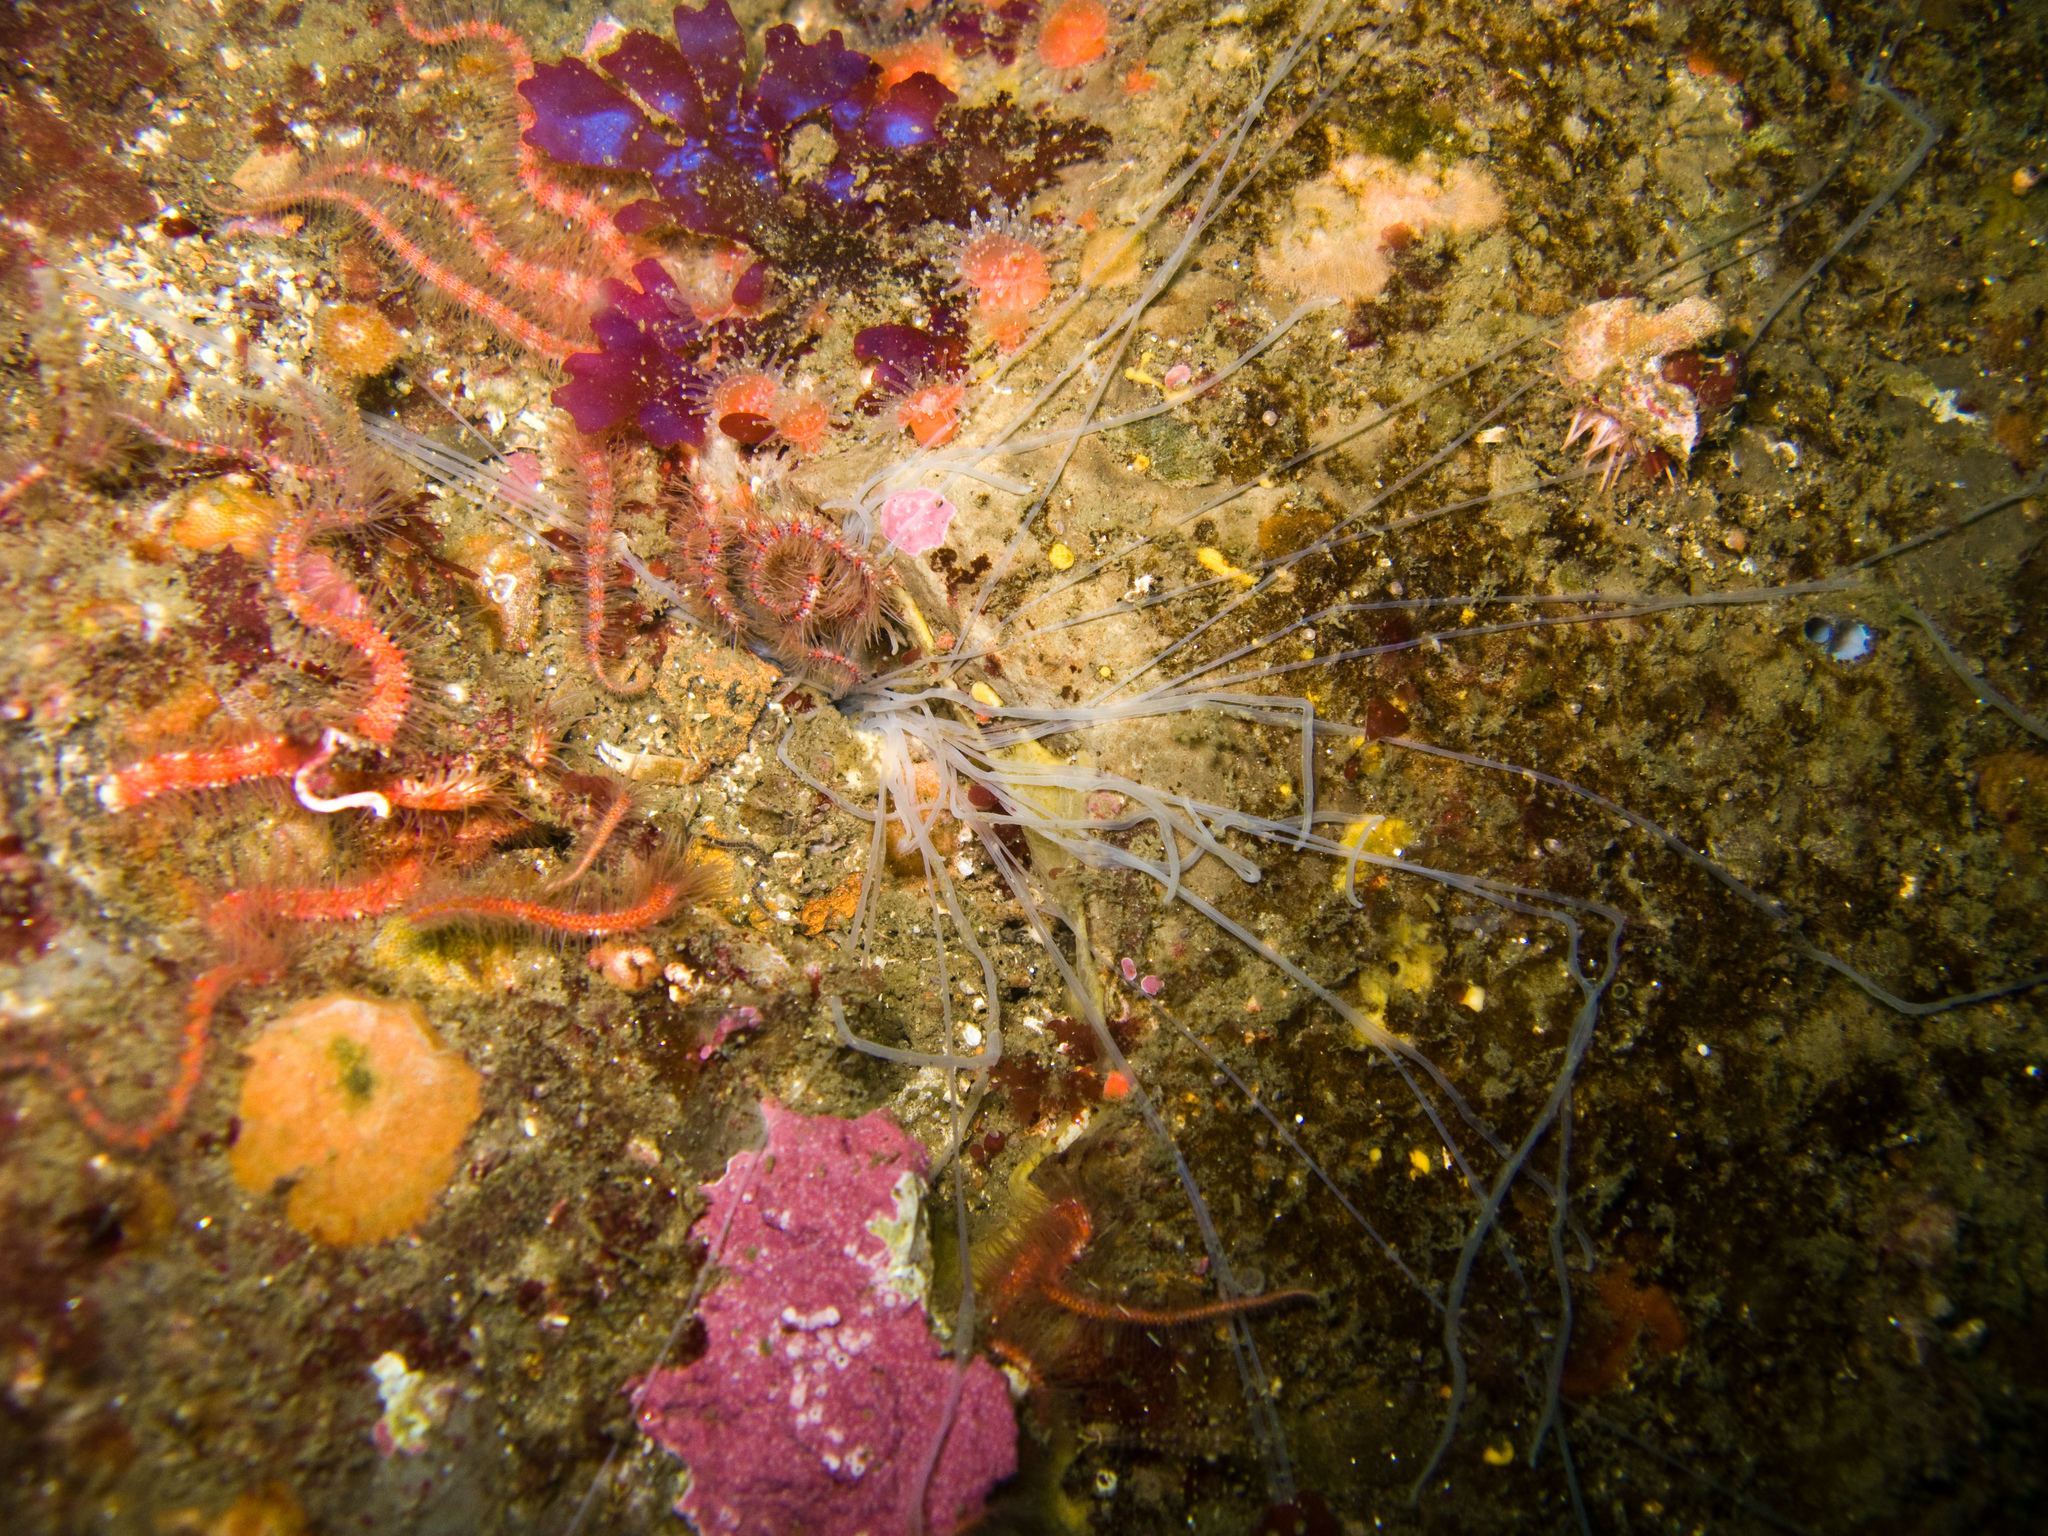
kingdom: Animalia
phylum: Cnidaria
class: Anthozoa
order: Corallimorpharia
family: Corallimorphidae
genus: Corynactis
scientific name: Corynactis californica
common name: Strawberry corallimorpharian
